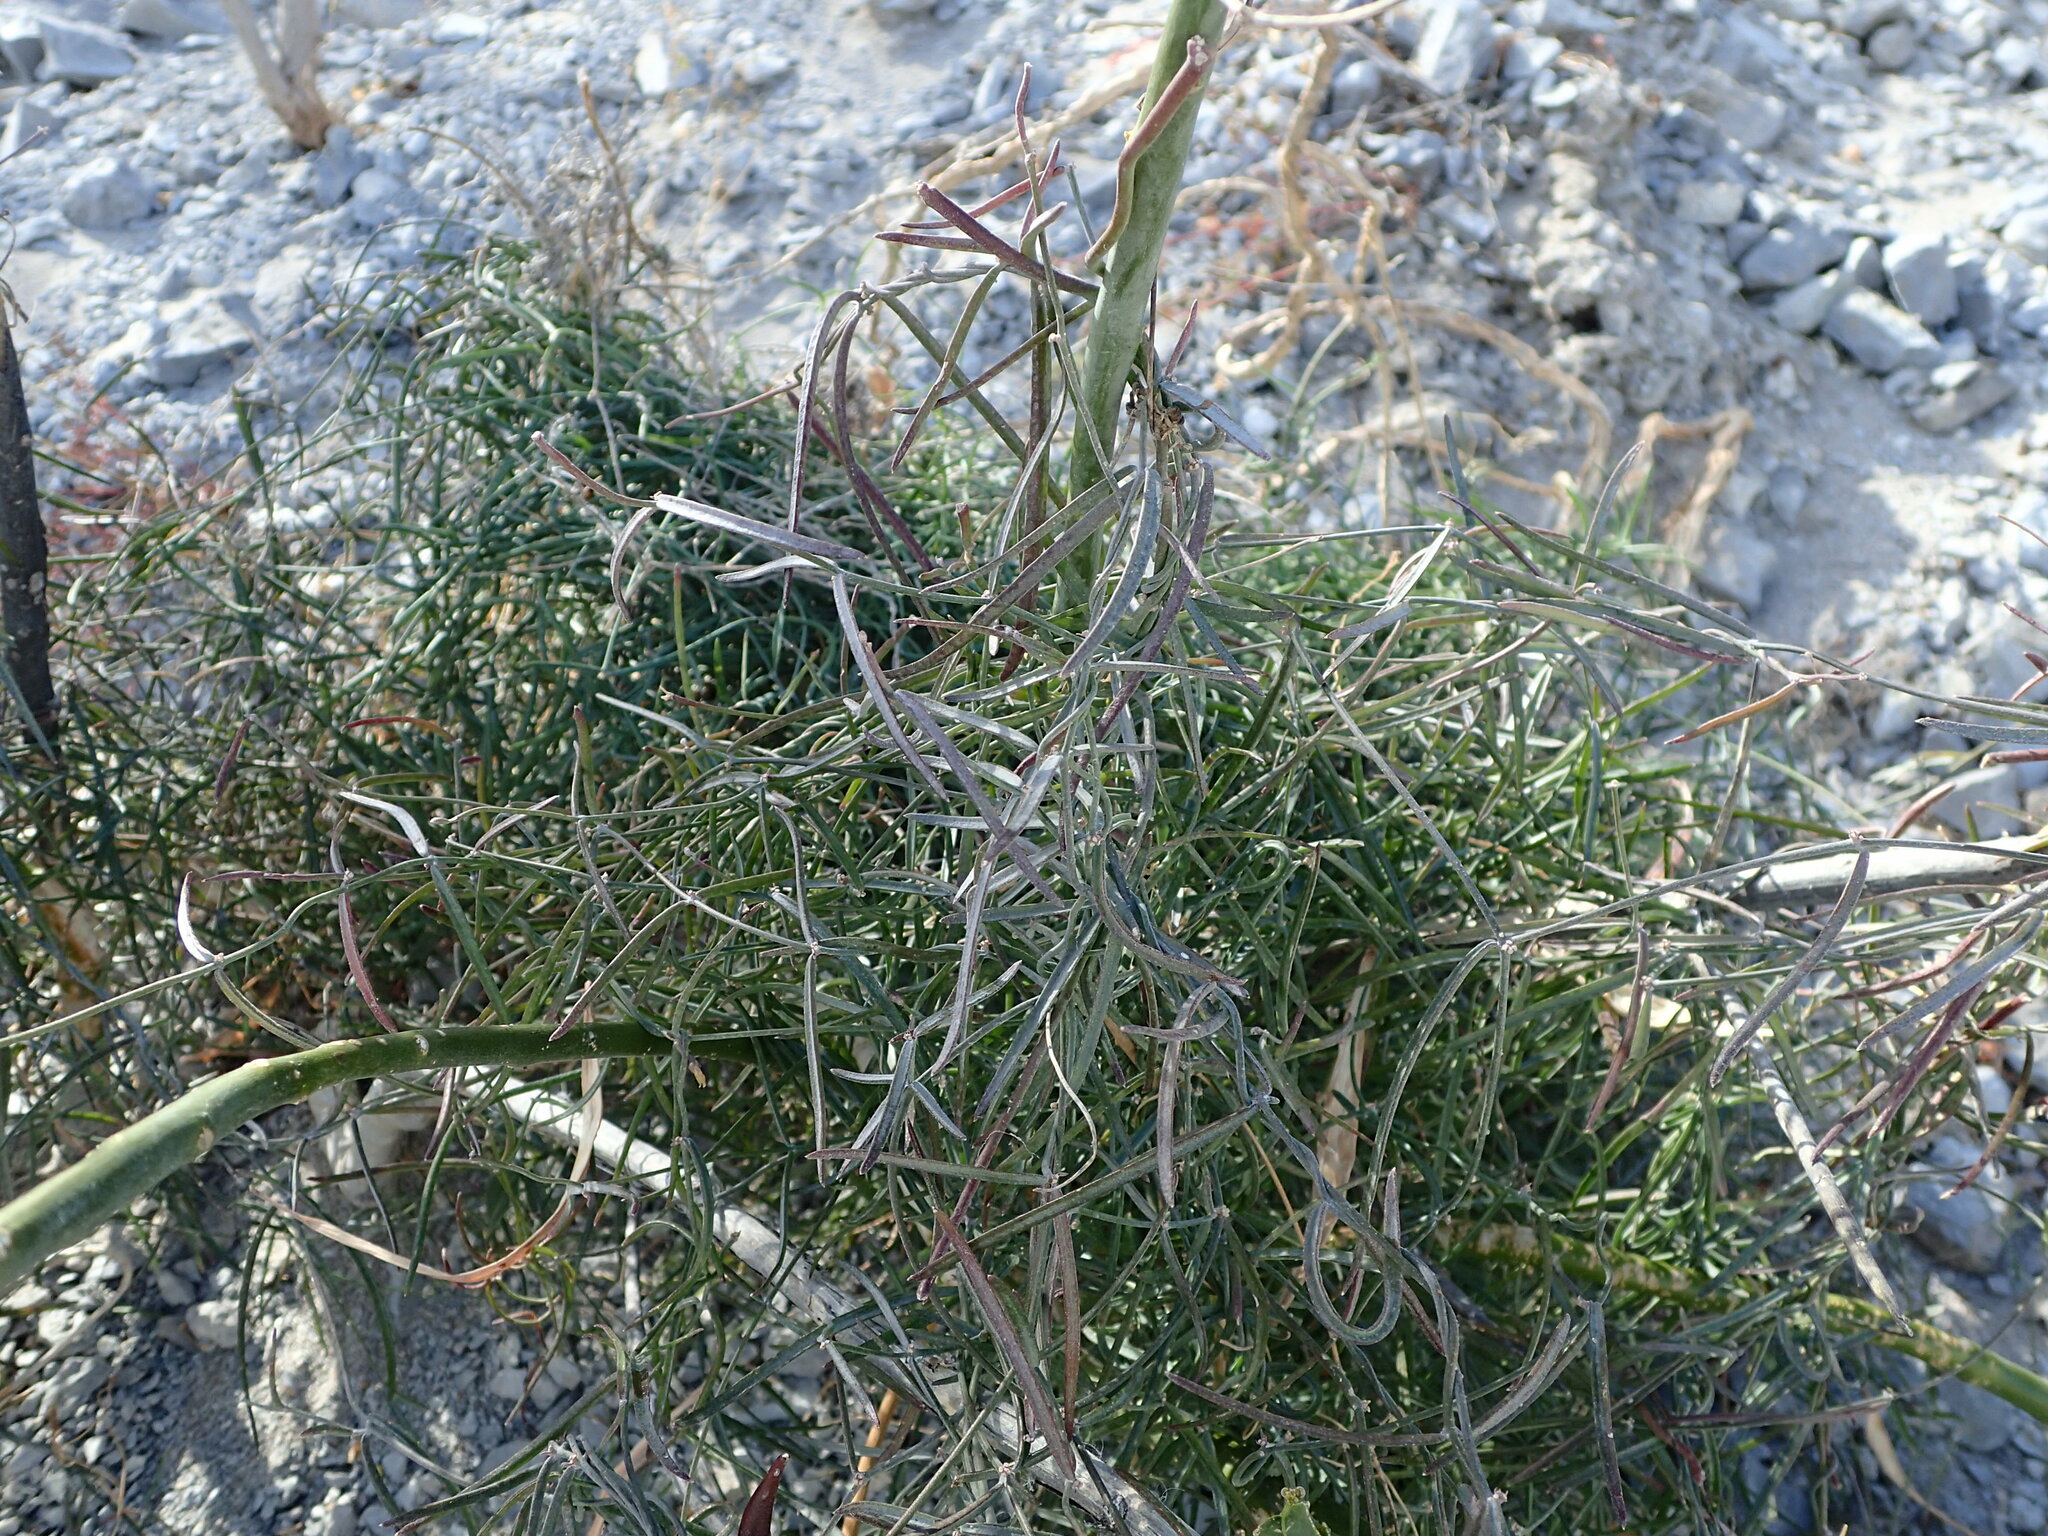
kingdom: Plantae
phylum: Tracheophyta
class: Magnoliopsida
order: Gentianales
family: Apocynaceae
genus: Pattalias
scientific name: Pattalias palmeri
